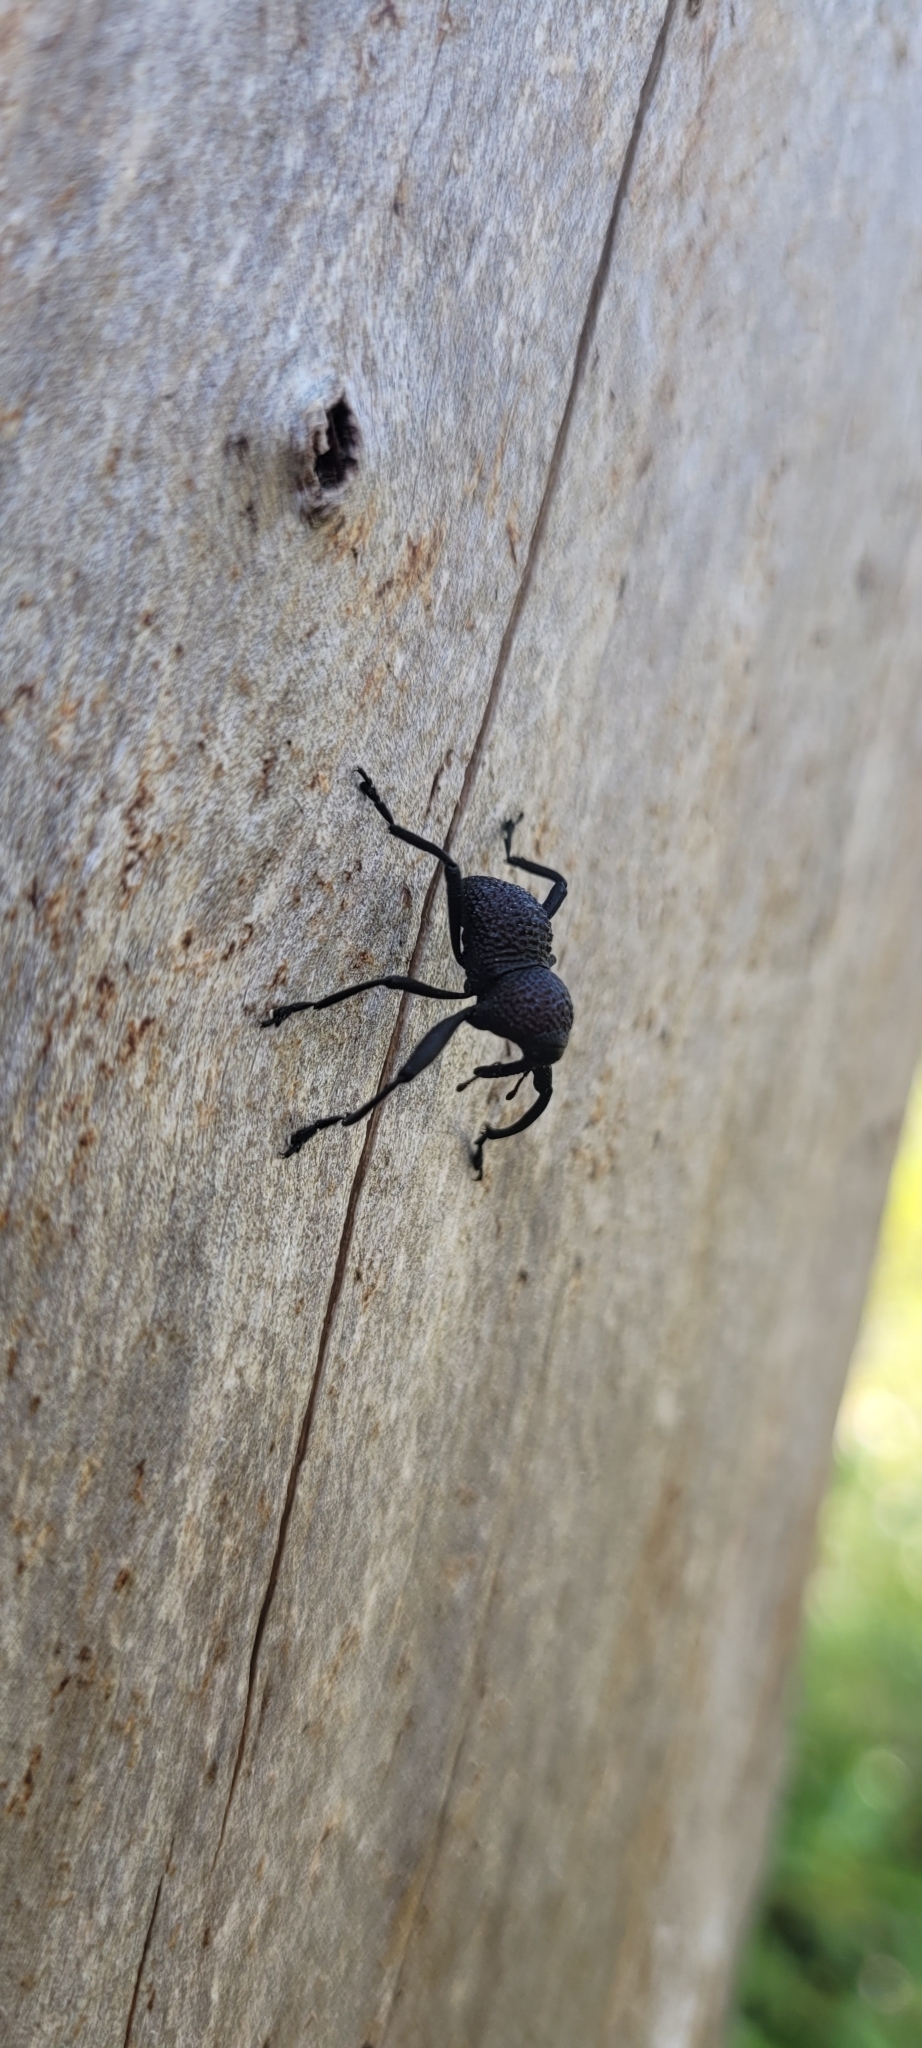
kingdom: Animalia
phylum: Arthropoda
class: Insecta
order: Coleoptera
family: Curculionidae
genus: Rhyephenes
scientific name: Rhyephenes maillei
